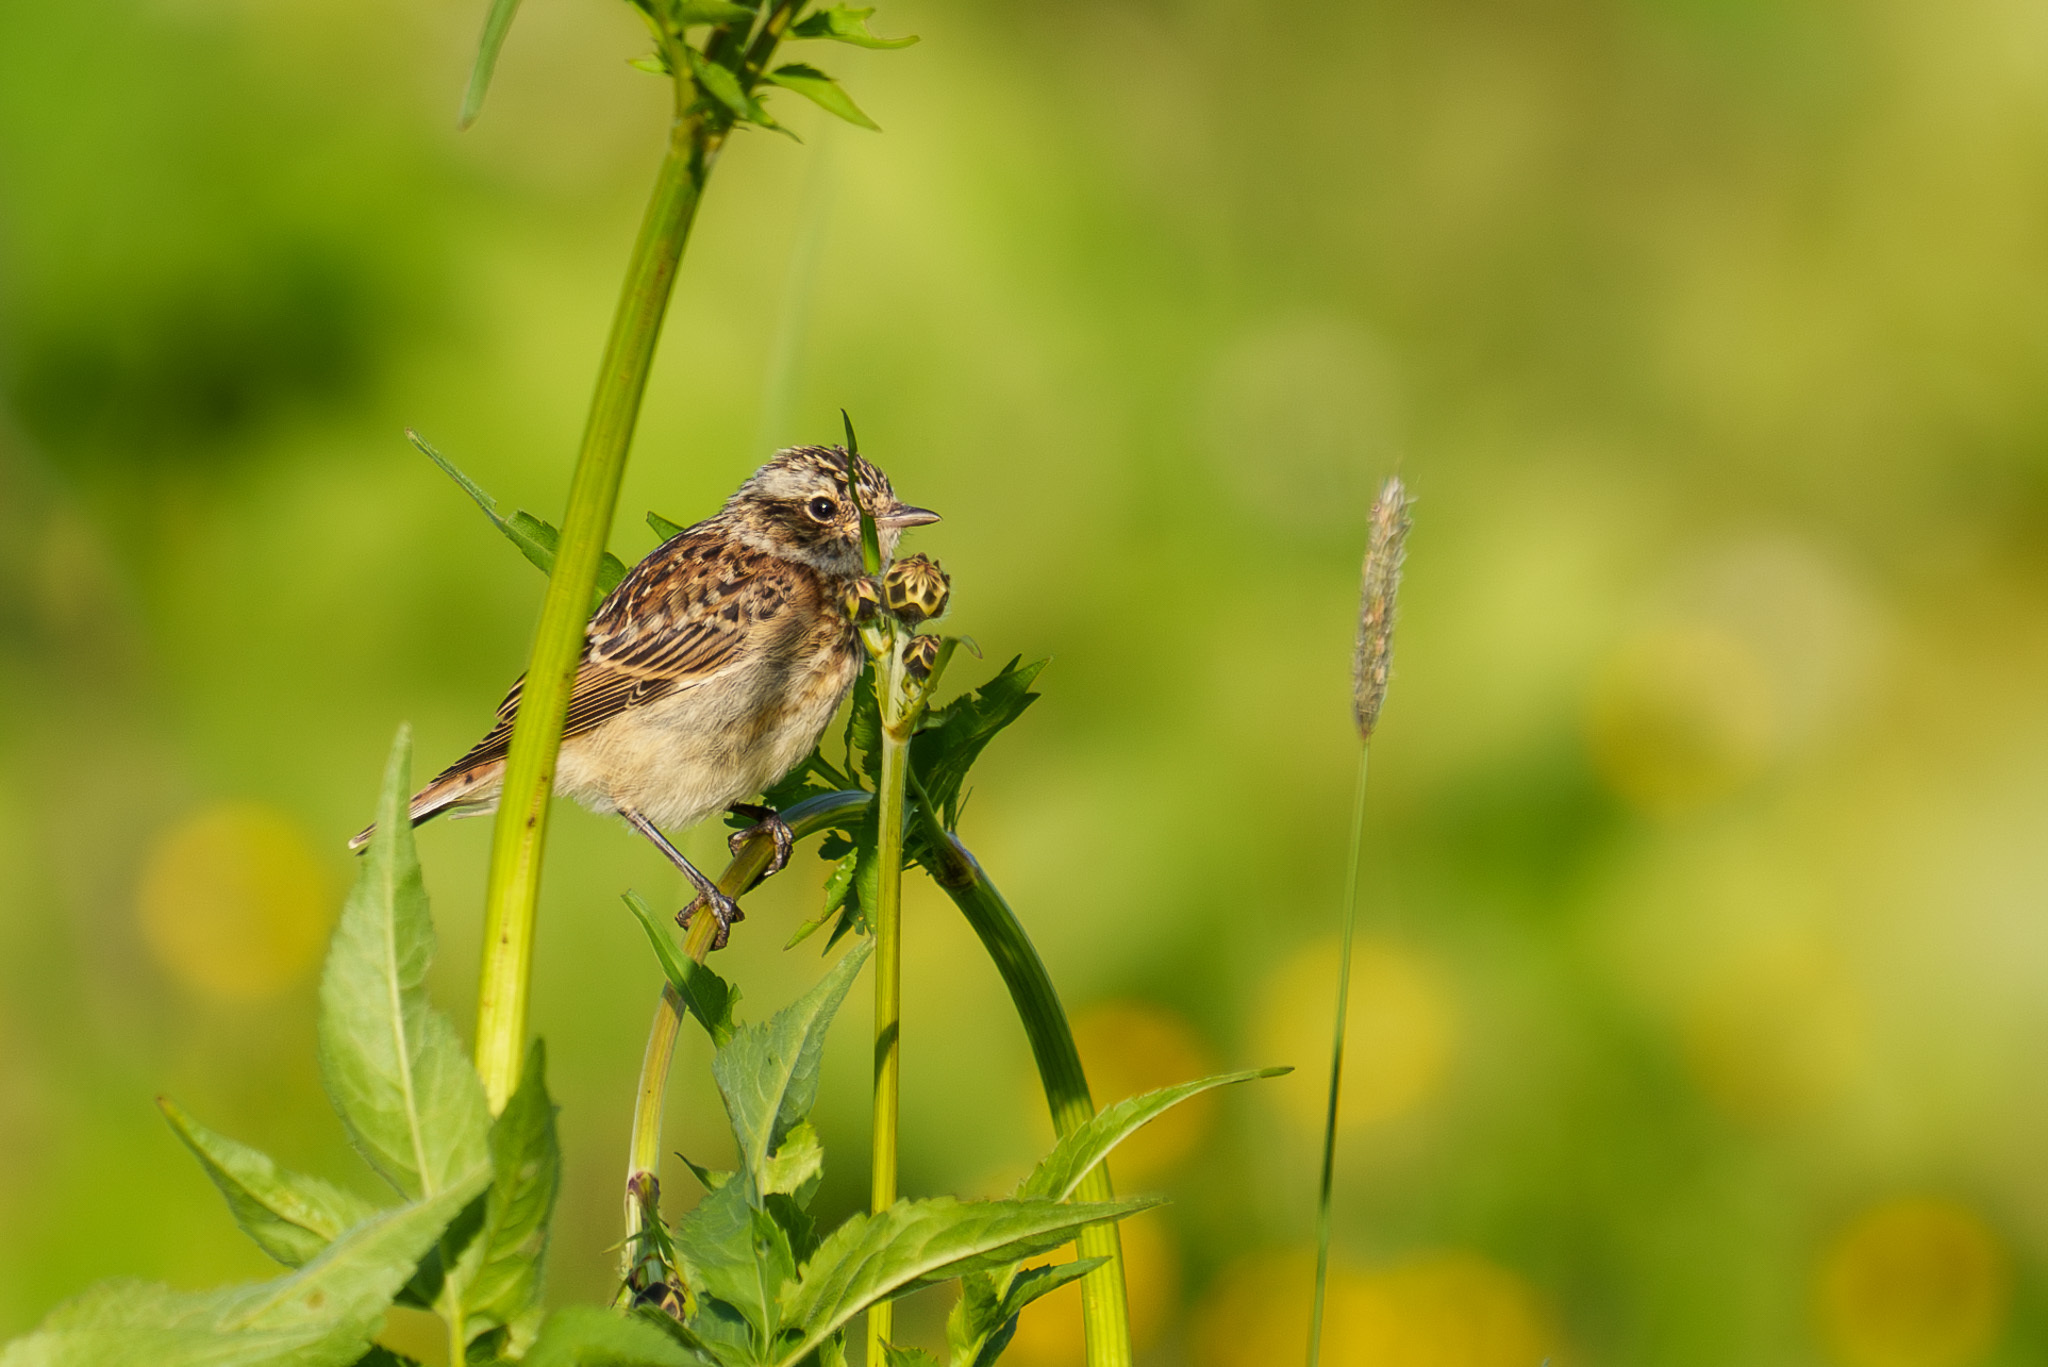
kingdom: Animalia
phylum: Chordata
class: Aves
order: Passeriformes
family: Muscicapidae
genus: Saxicola
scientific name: Saxicola rubetra
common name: Whinchat
